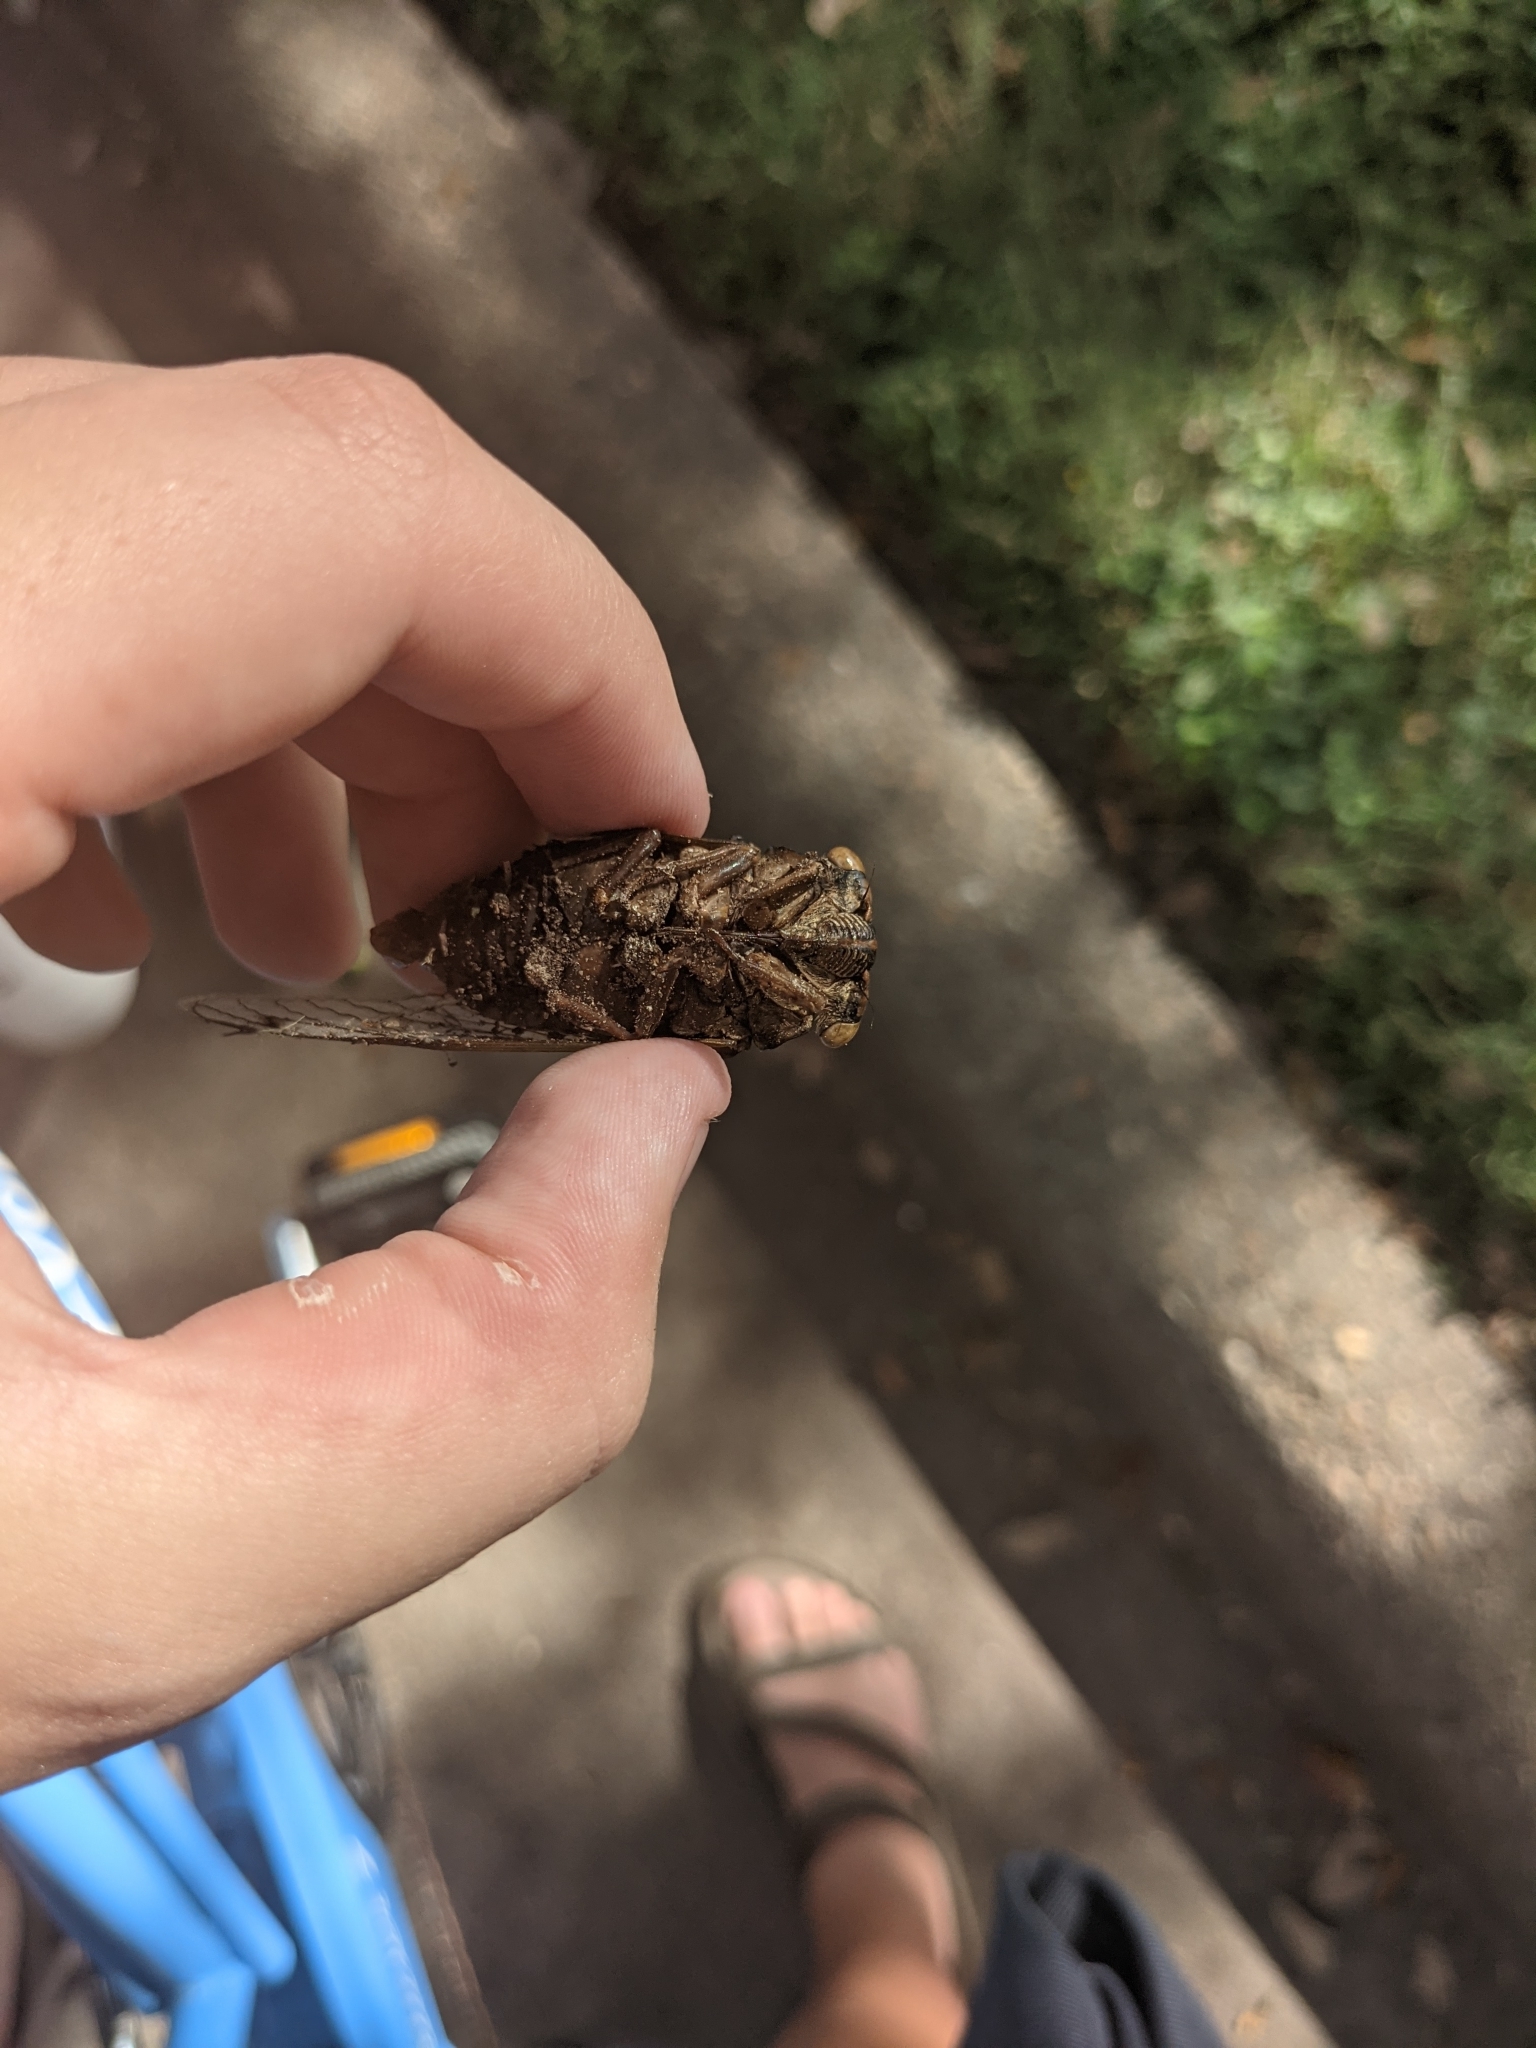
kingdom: Animalia
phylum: Arthropoda
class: Insecta
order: Hemiptera
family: Cicadidae
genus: Megatibicen
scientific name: Megatibicen resh
